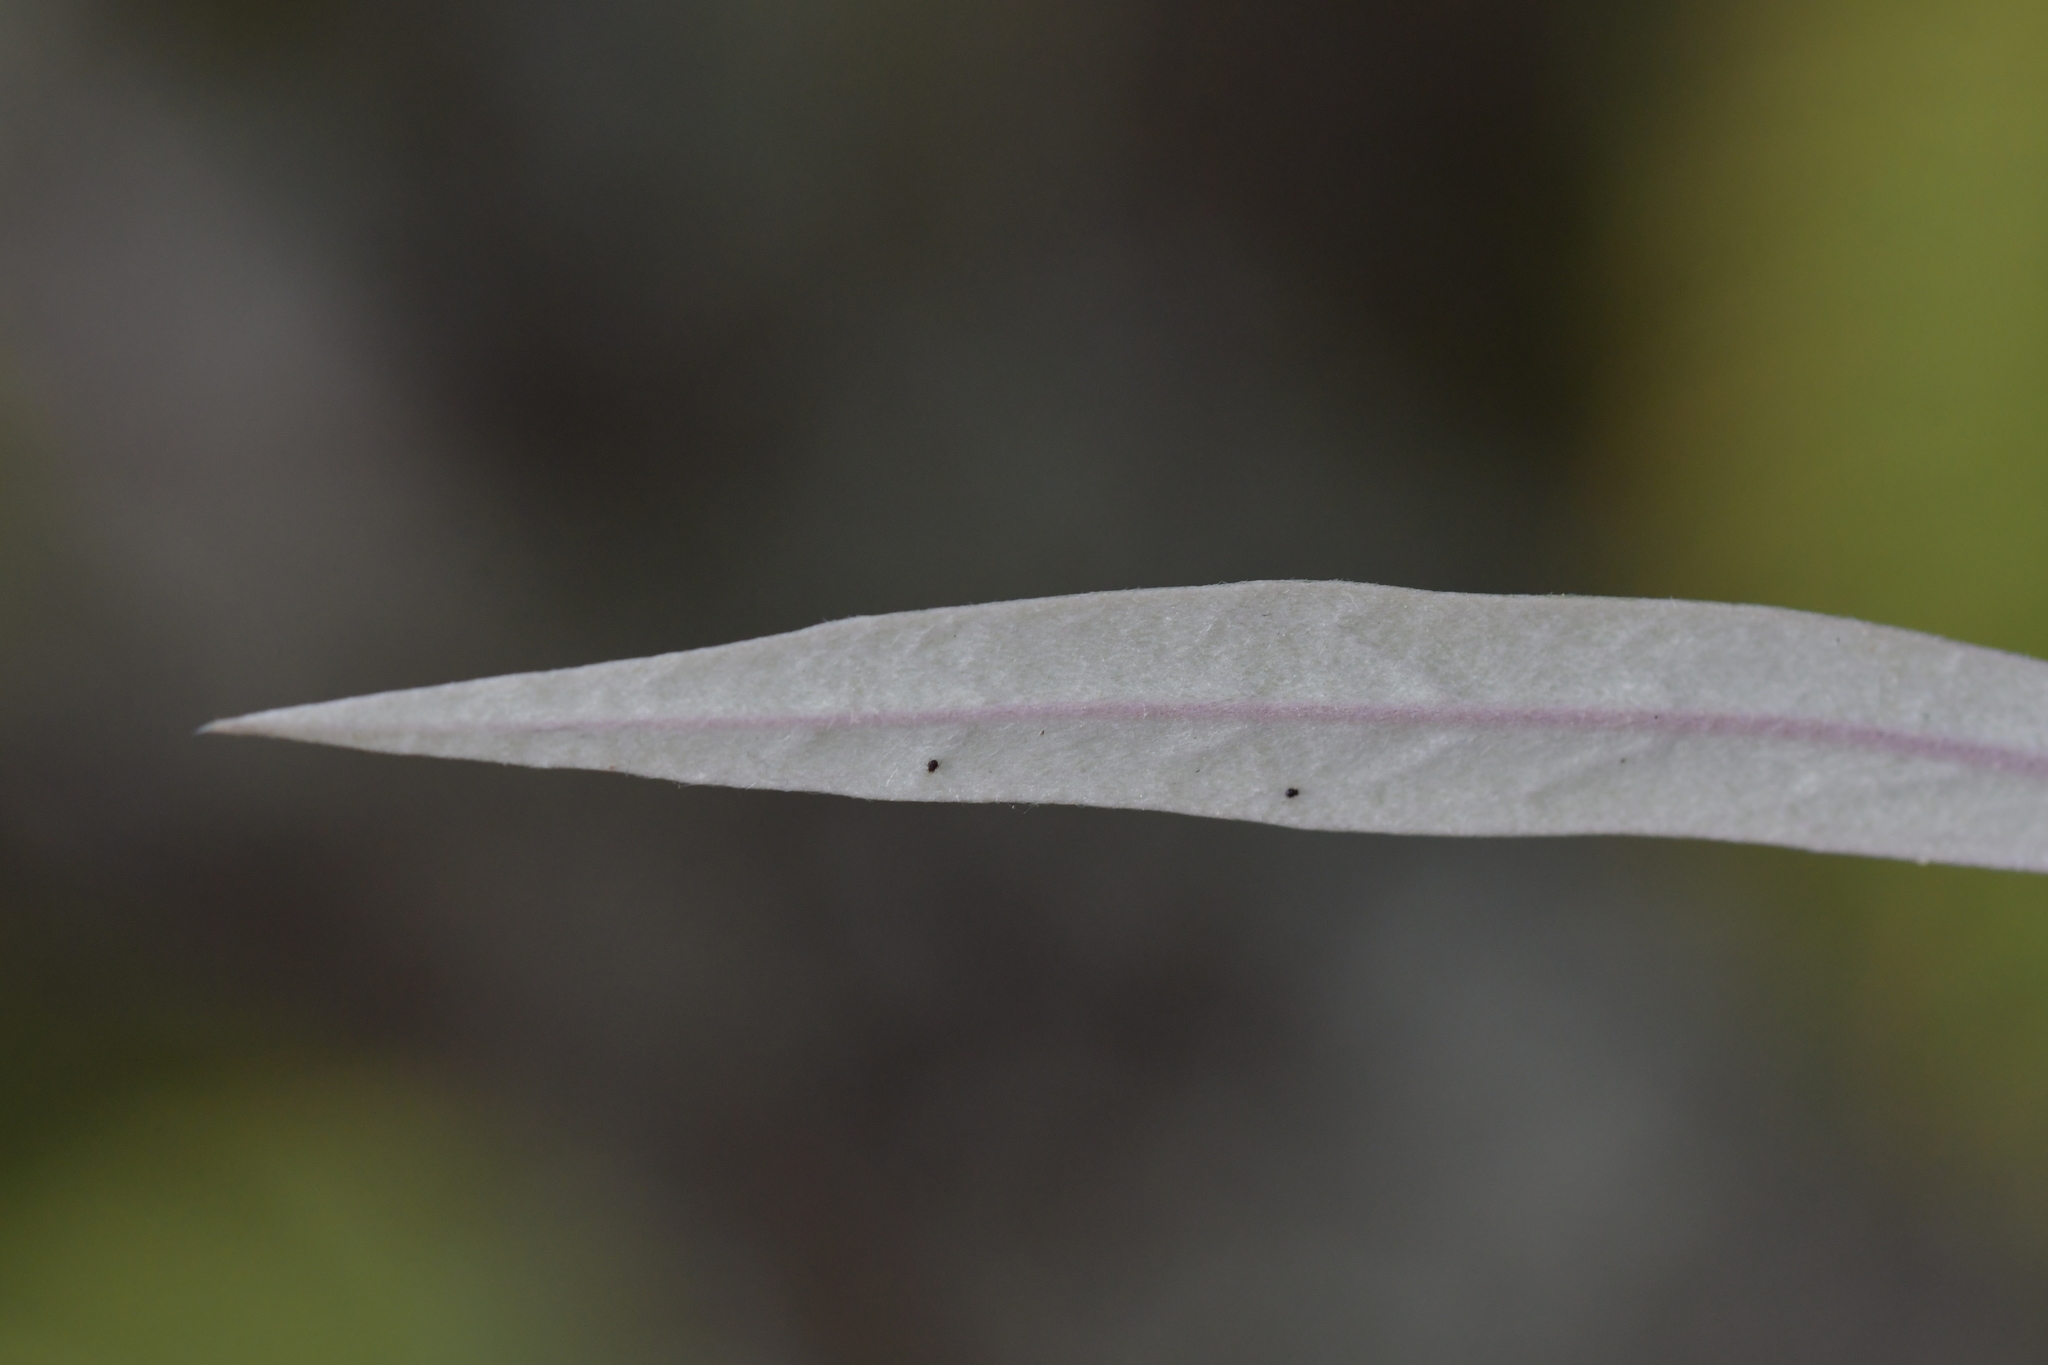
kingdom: Plantae
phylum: Tracheophyta
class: Magnoliopsida
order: Asterales
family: Argophyllaceae
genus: Corokia
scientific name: Corokia buddleioides
